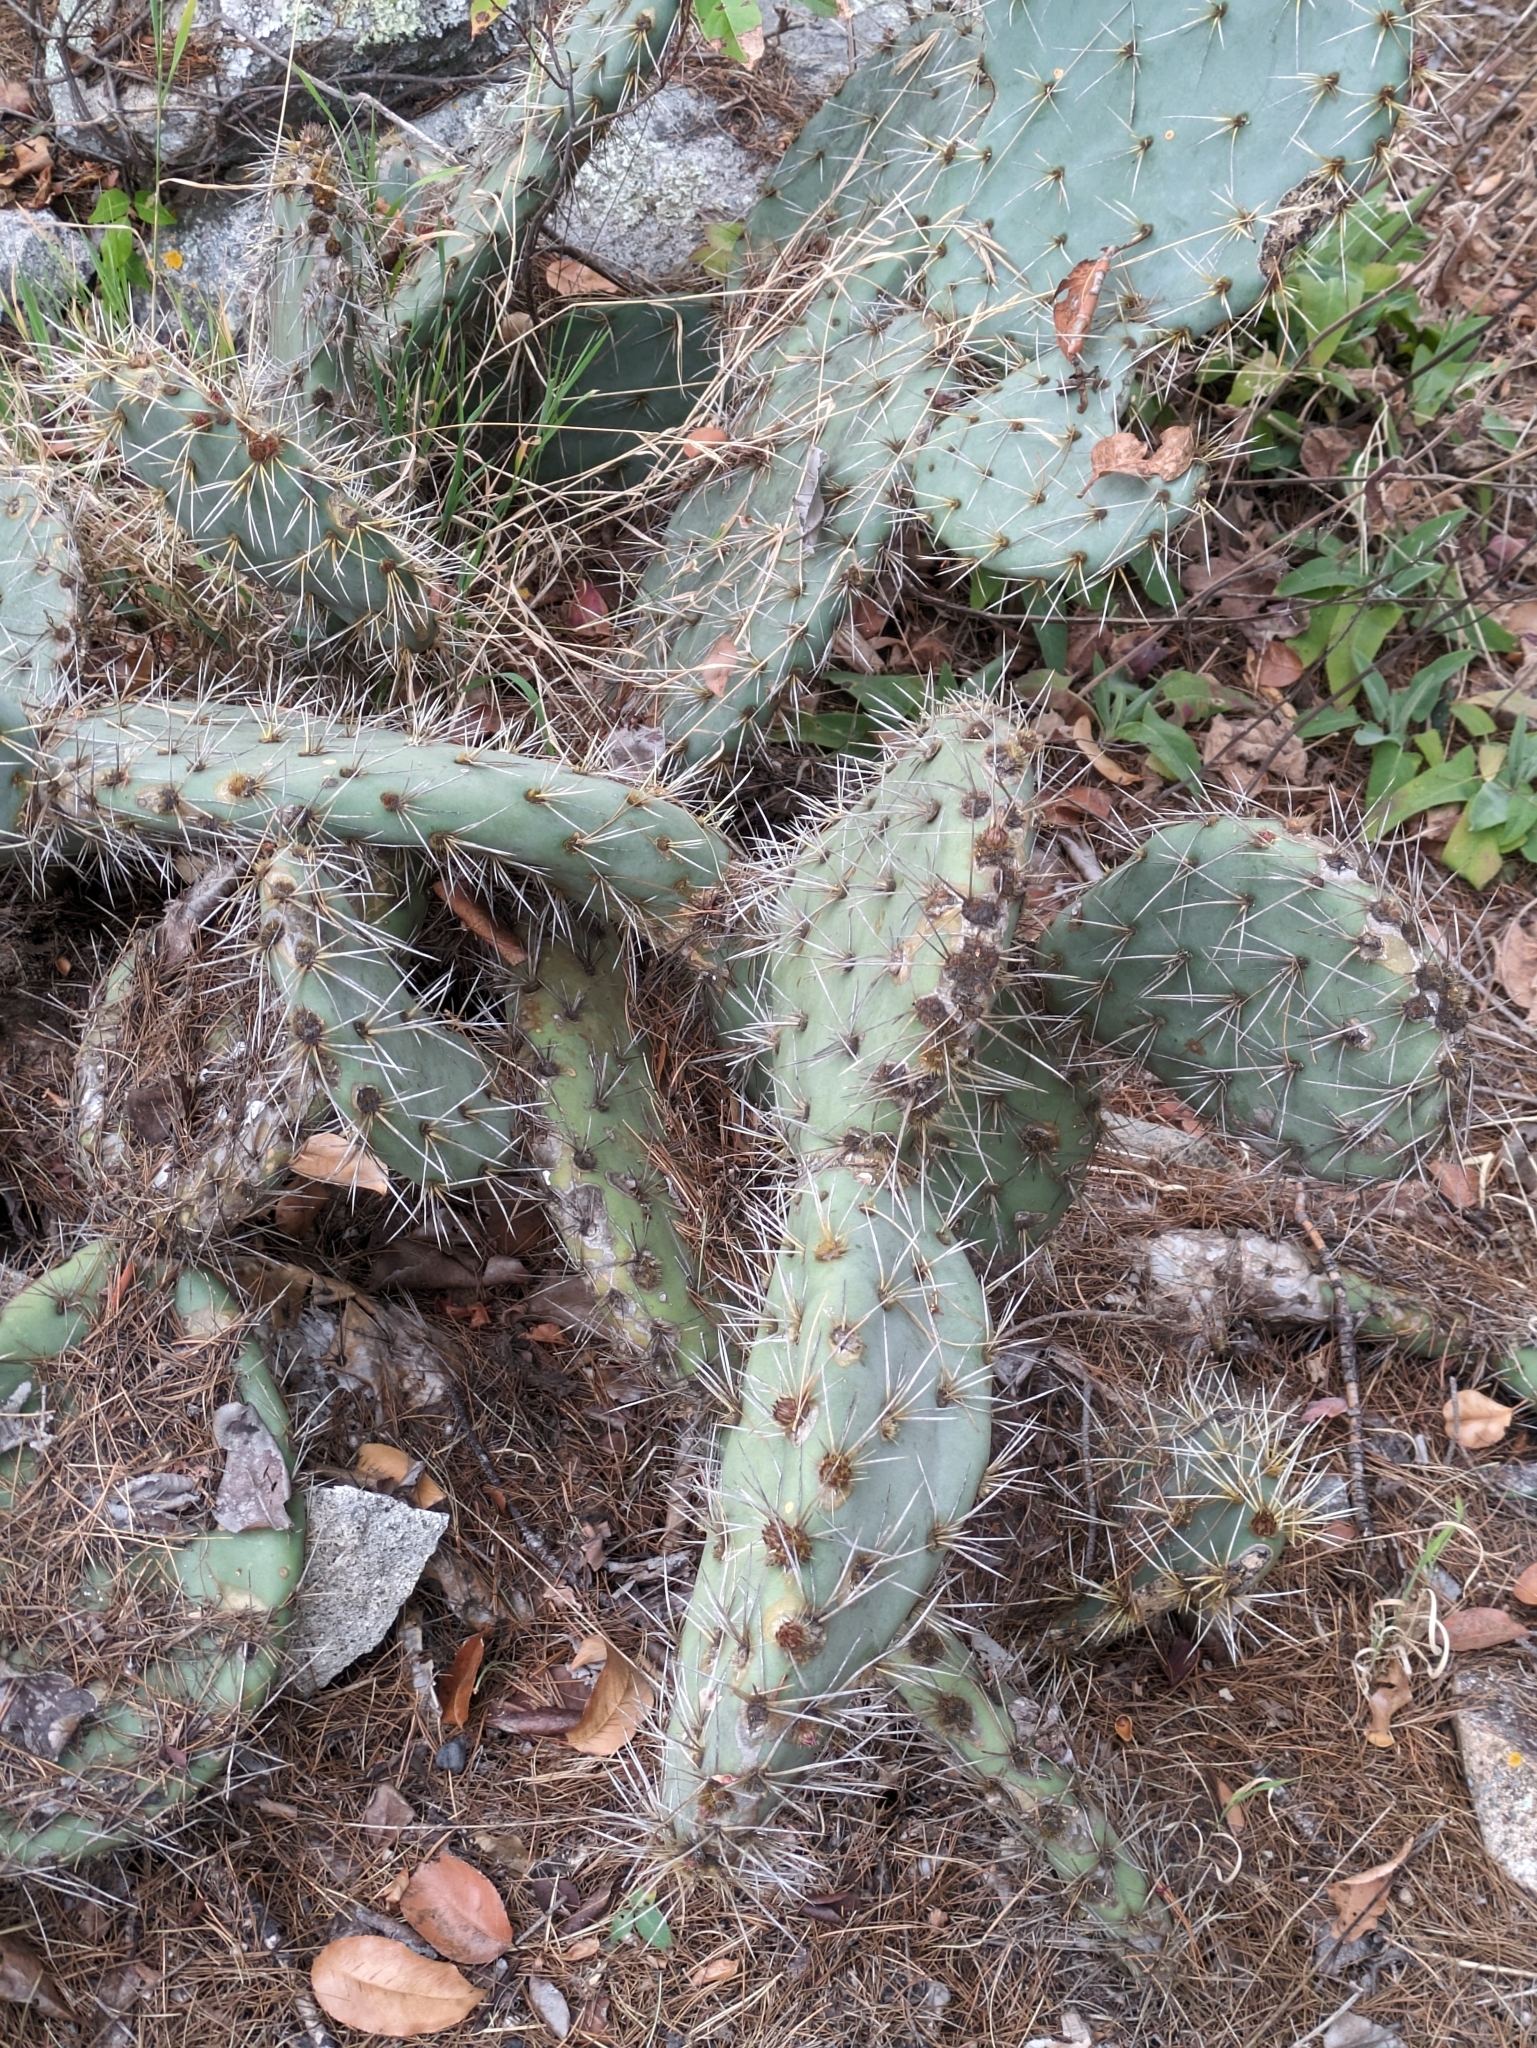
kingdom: Plantae
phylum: Tracheophyta
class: Magnoliopsida
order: Caryophyllales
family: Cactaceae
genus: Opuntia
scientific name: Opuntia lagunae
